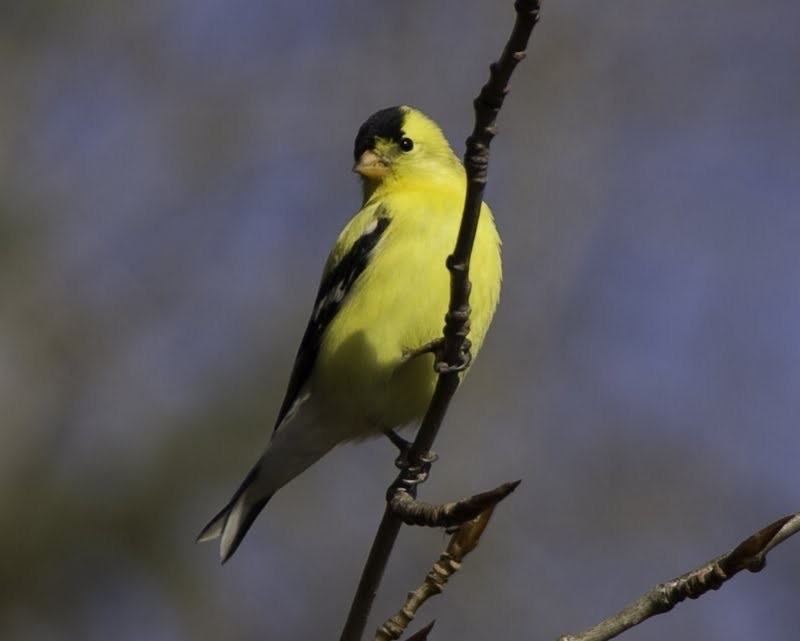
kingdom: Animalia
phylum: Chordata
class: Aves
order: Passeriformes
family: Fringillidae
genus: Spinus
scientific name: Spinus tristis
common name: American goldfinch
